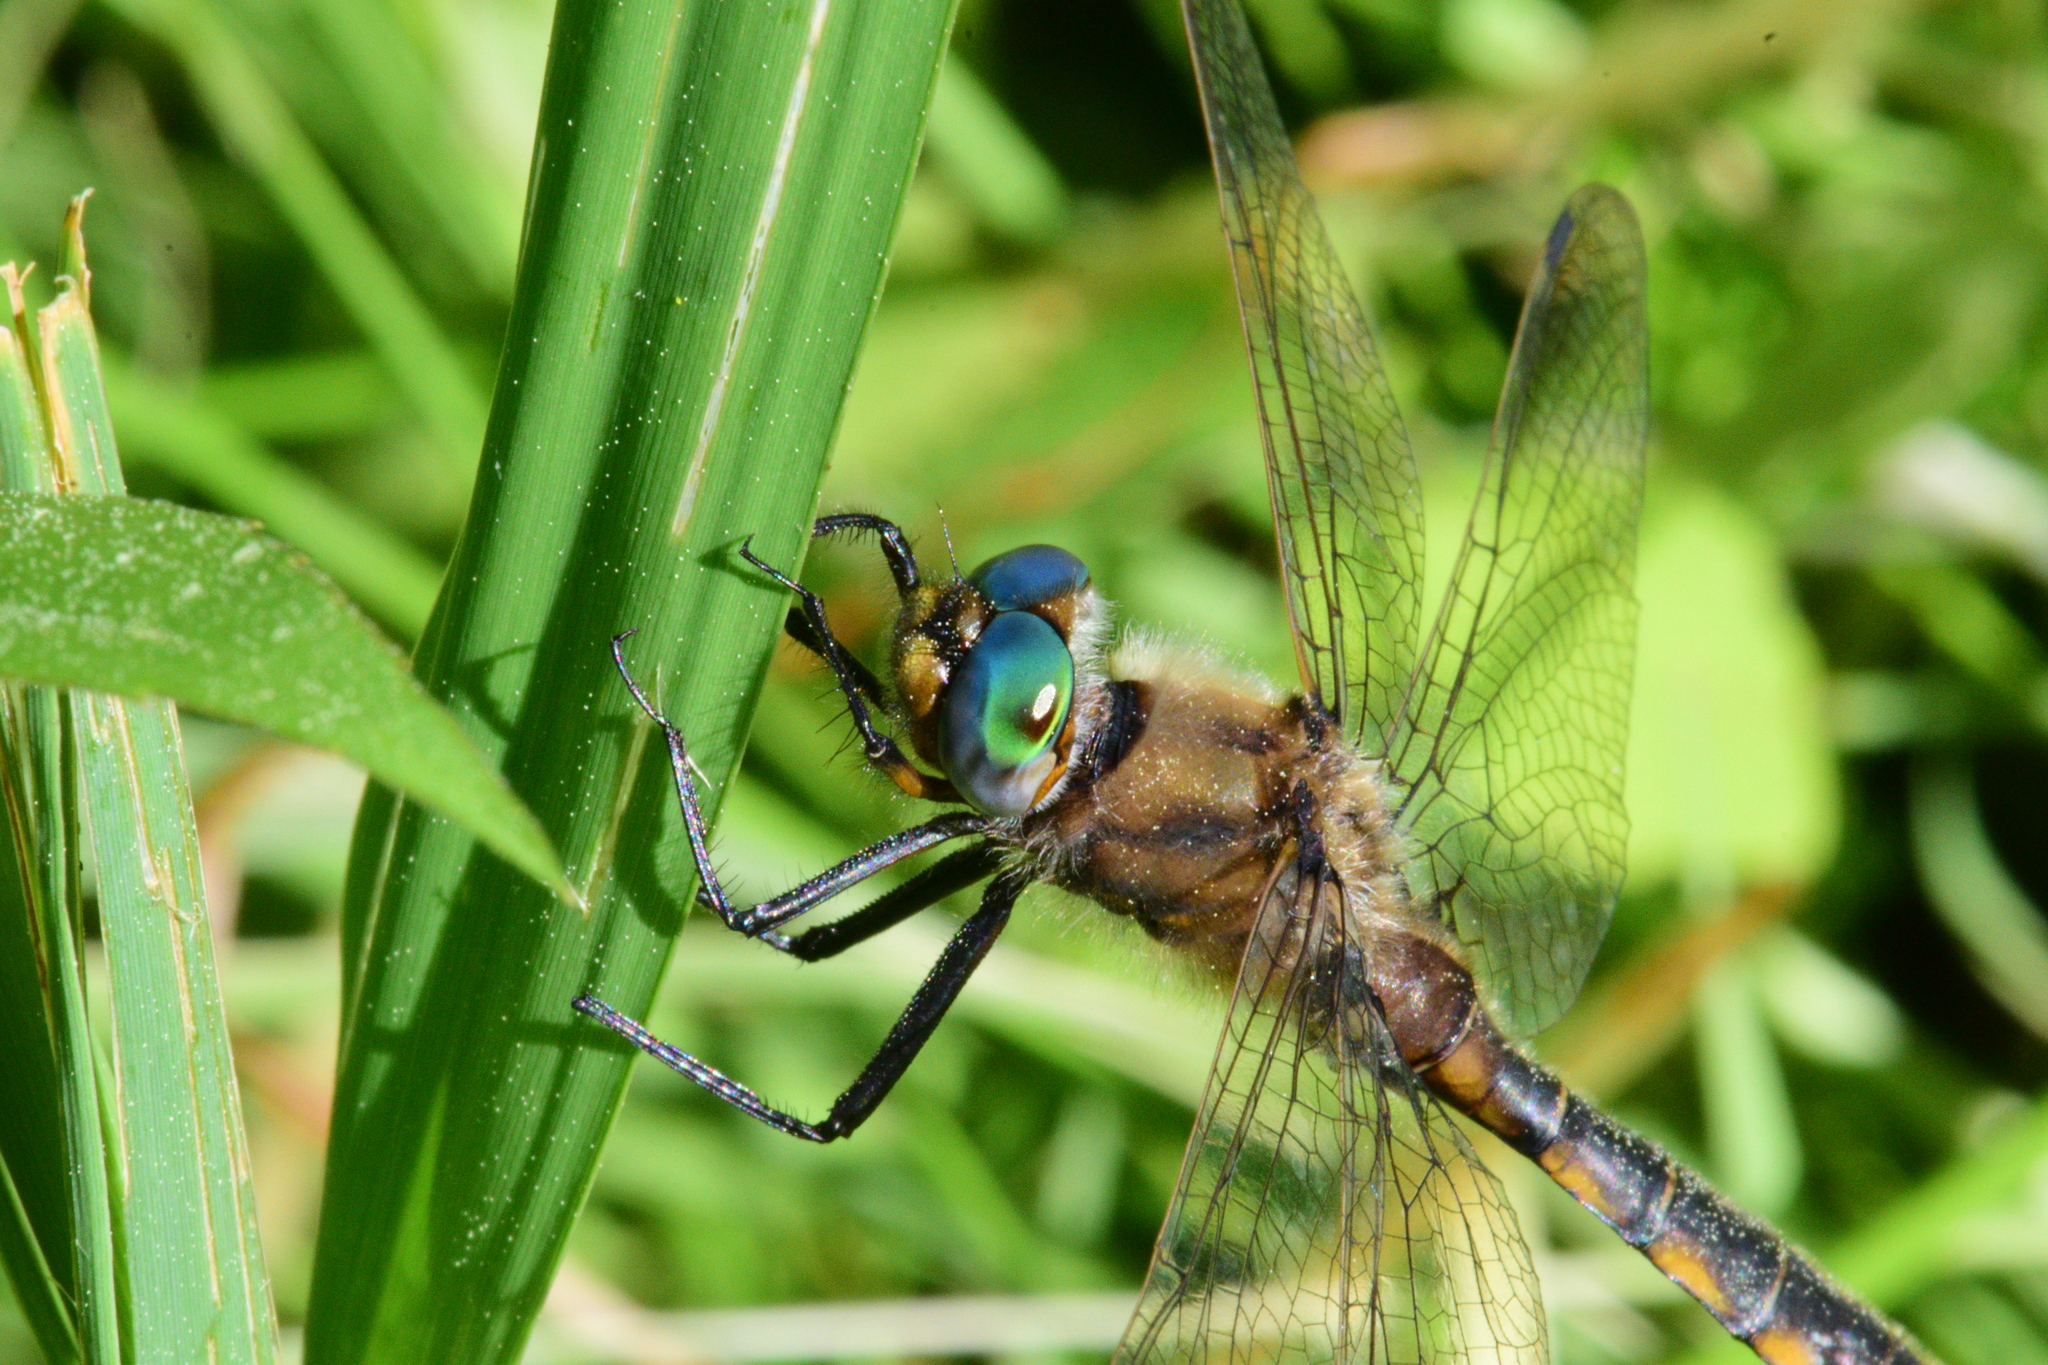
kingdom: Animalia
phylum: Arthropoda
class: Insecta
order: Odonata
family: Corduliidae
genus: Epitheca
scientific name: Epitheca canis
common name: Beaverpond baskettail
